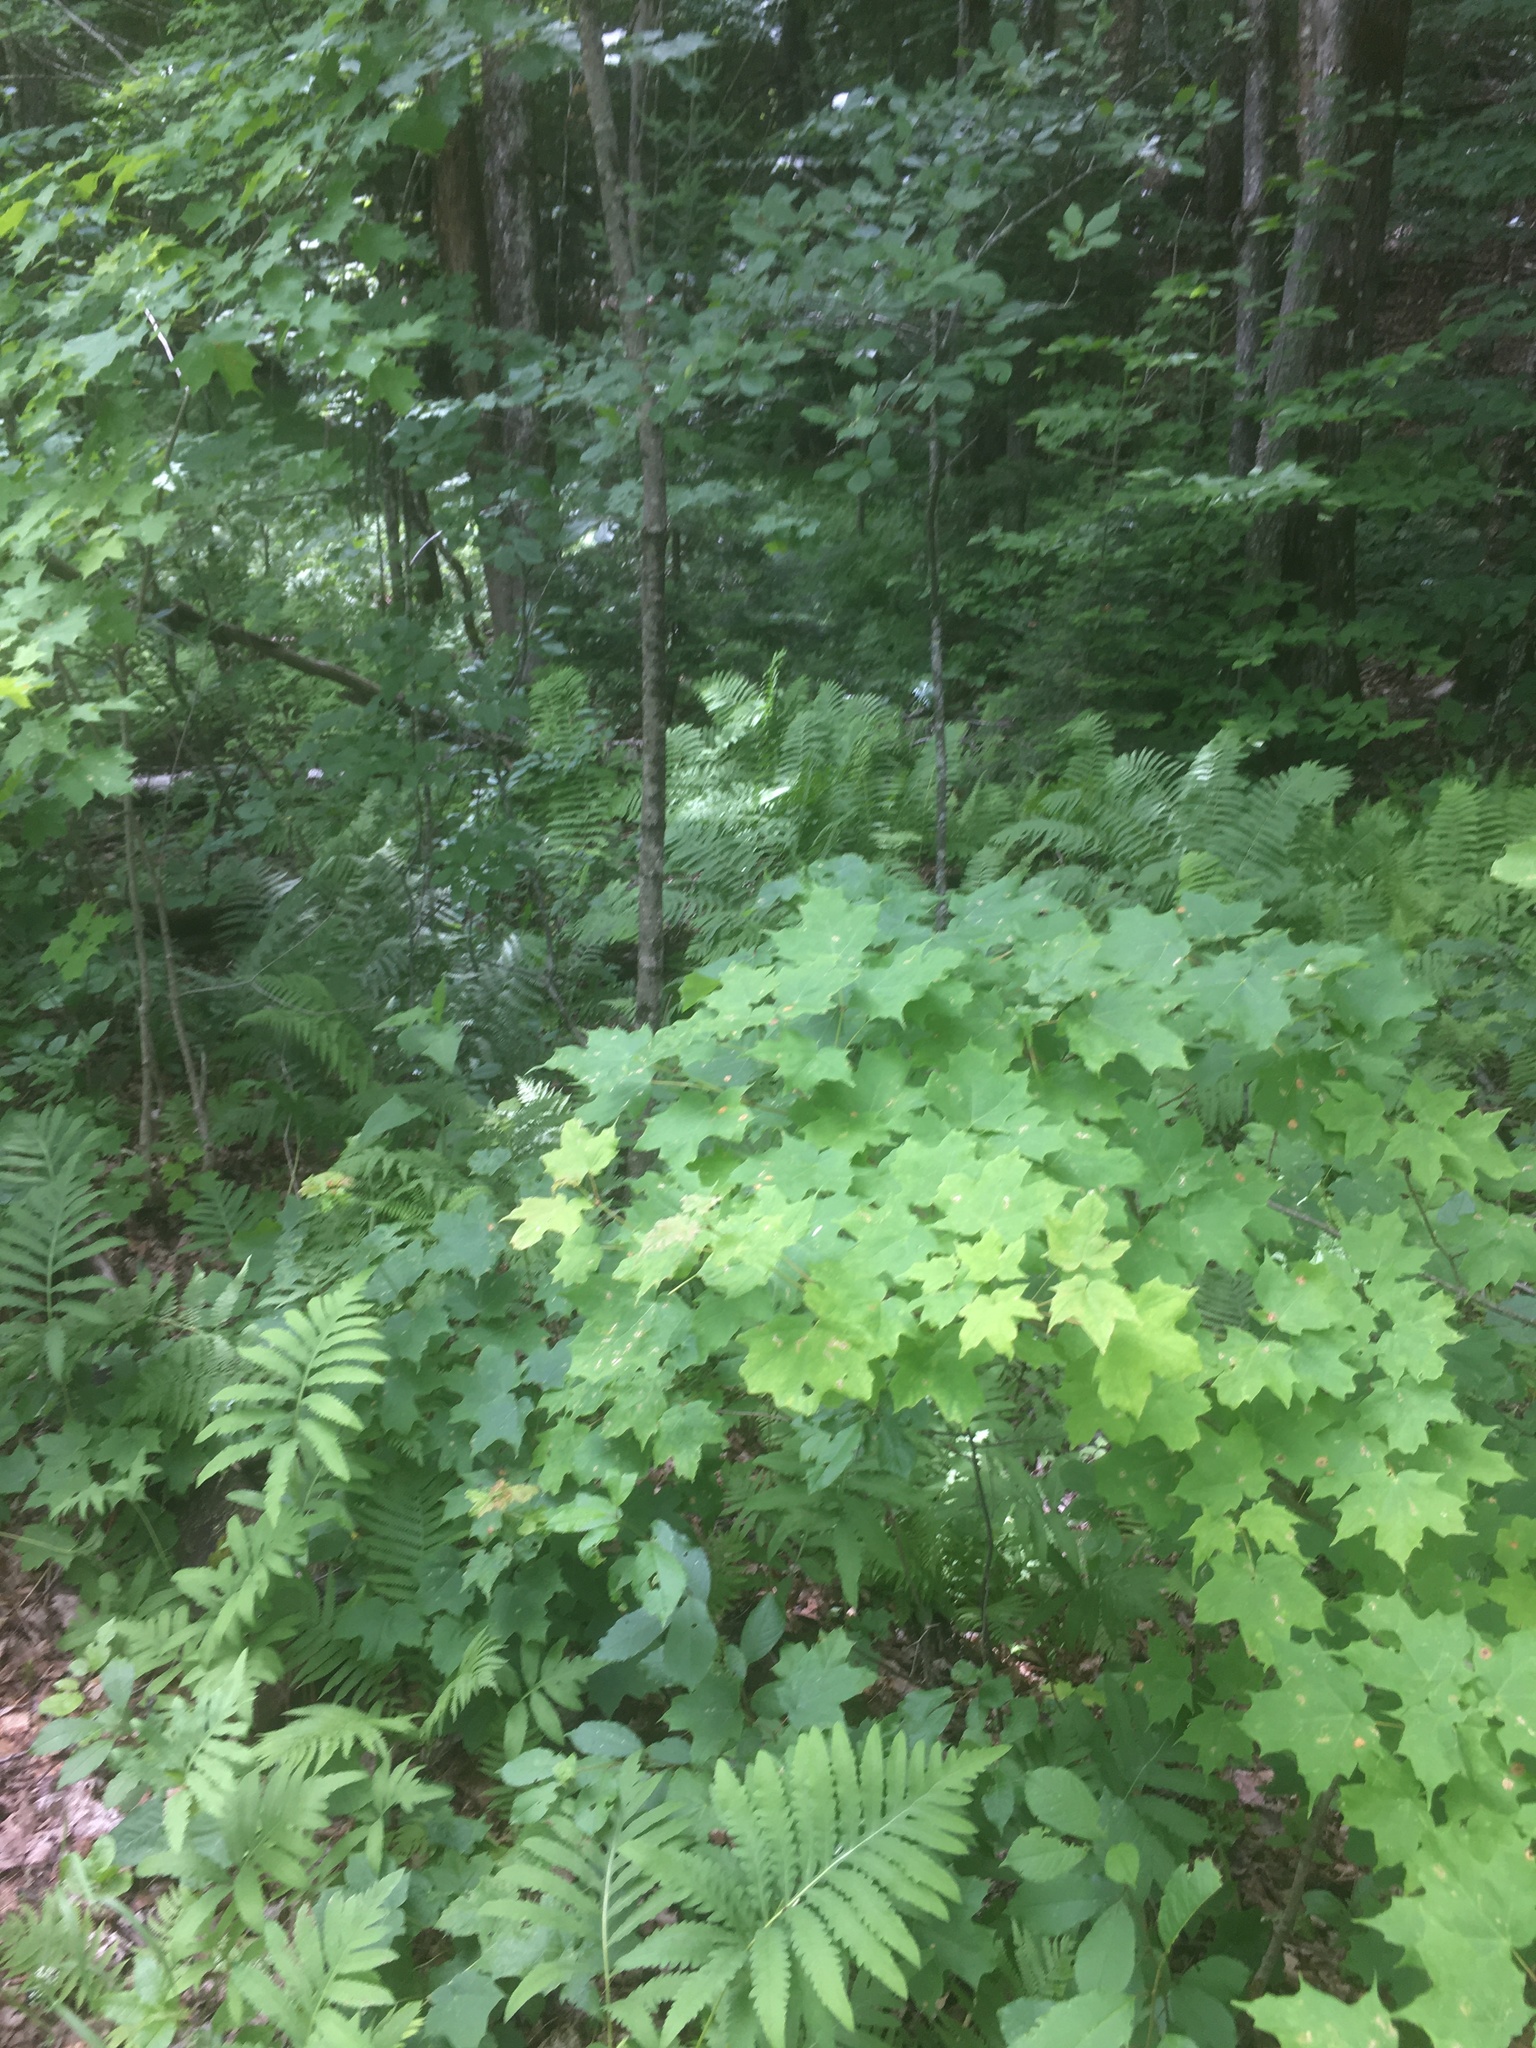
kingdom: Plantae
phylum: Tracheophyta
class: Magnoliopsida
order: Sapindales
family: Sapindaceae
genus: Acer
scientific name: Acer saccharum
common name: Sugar maple
